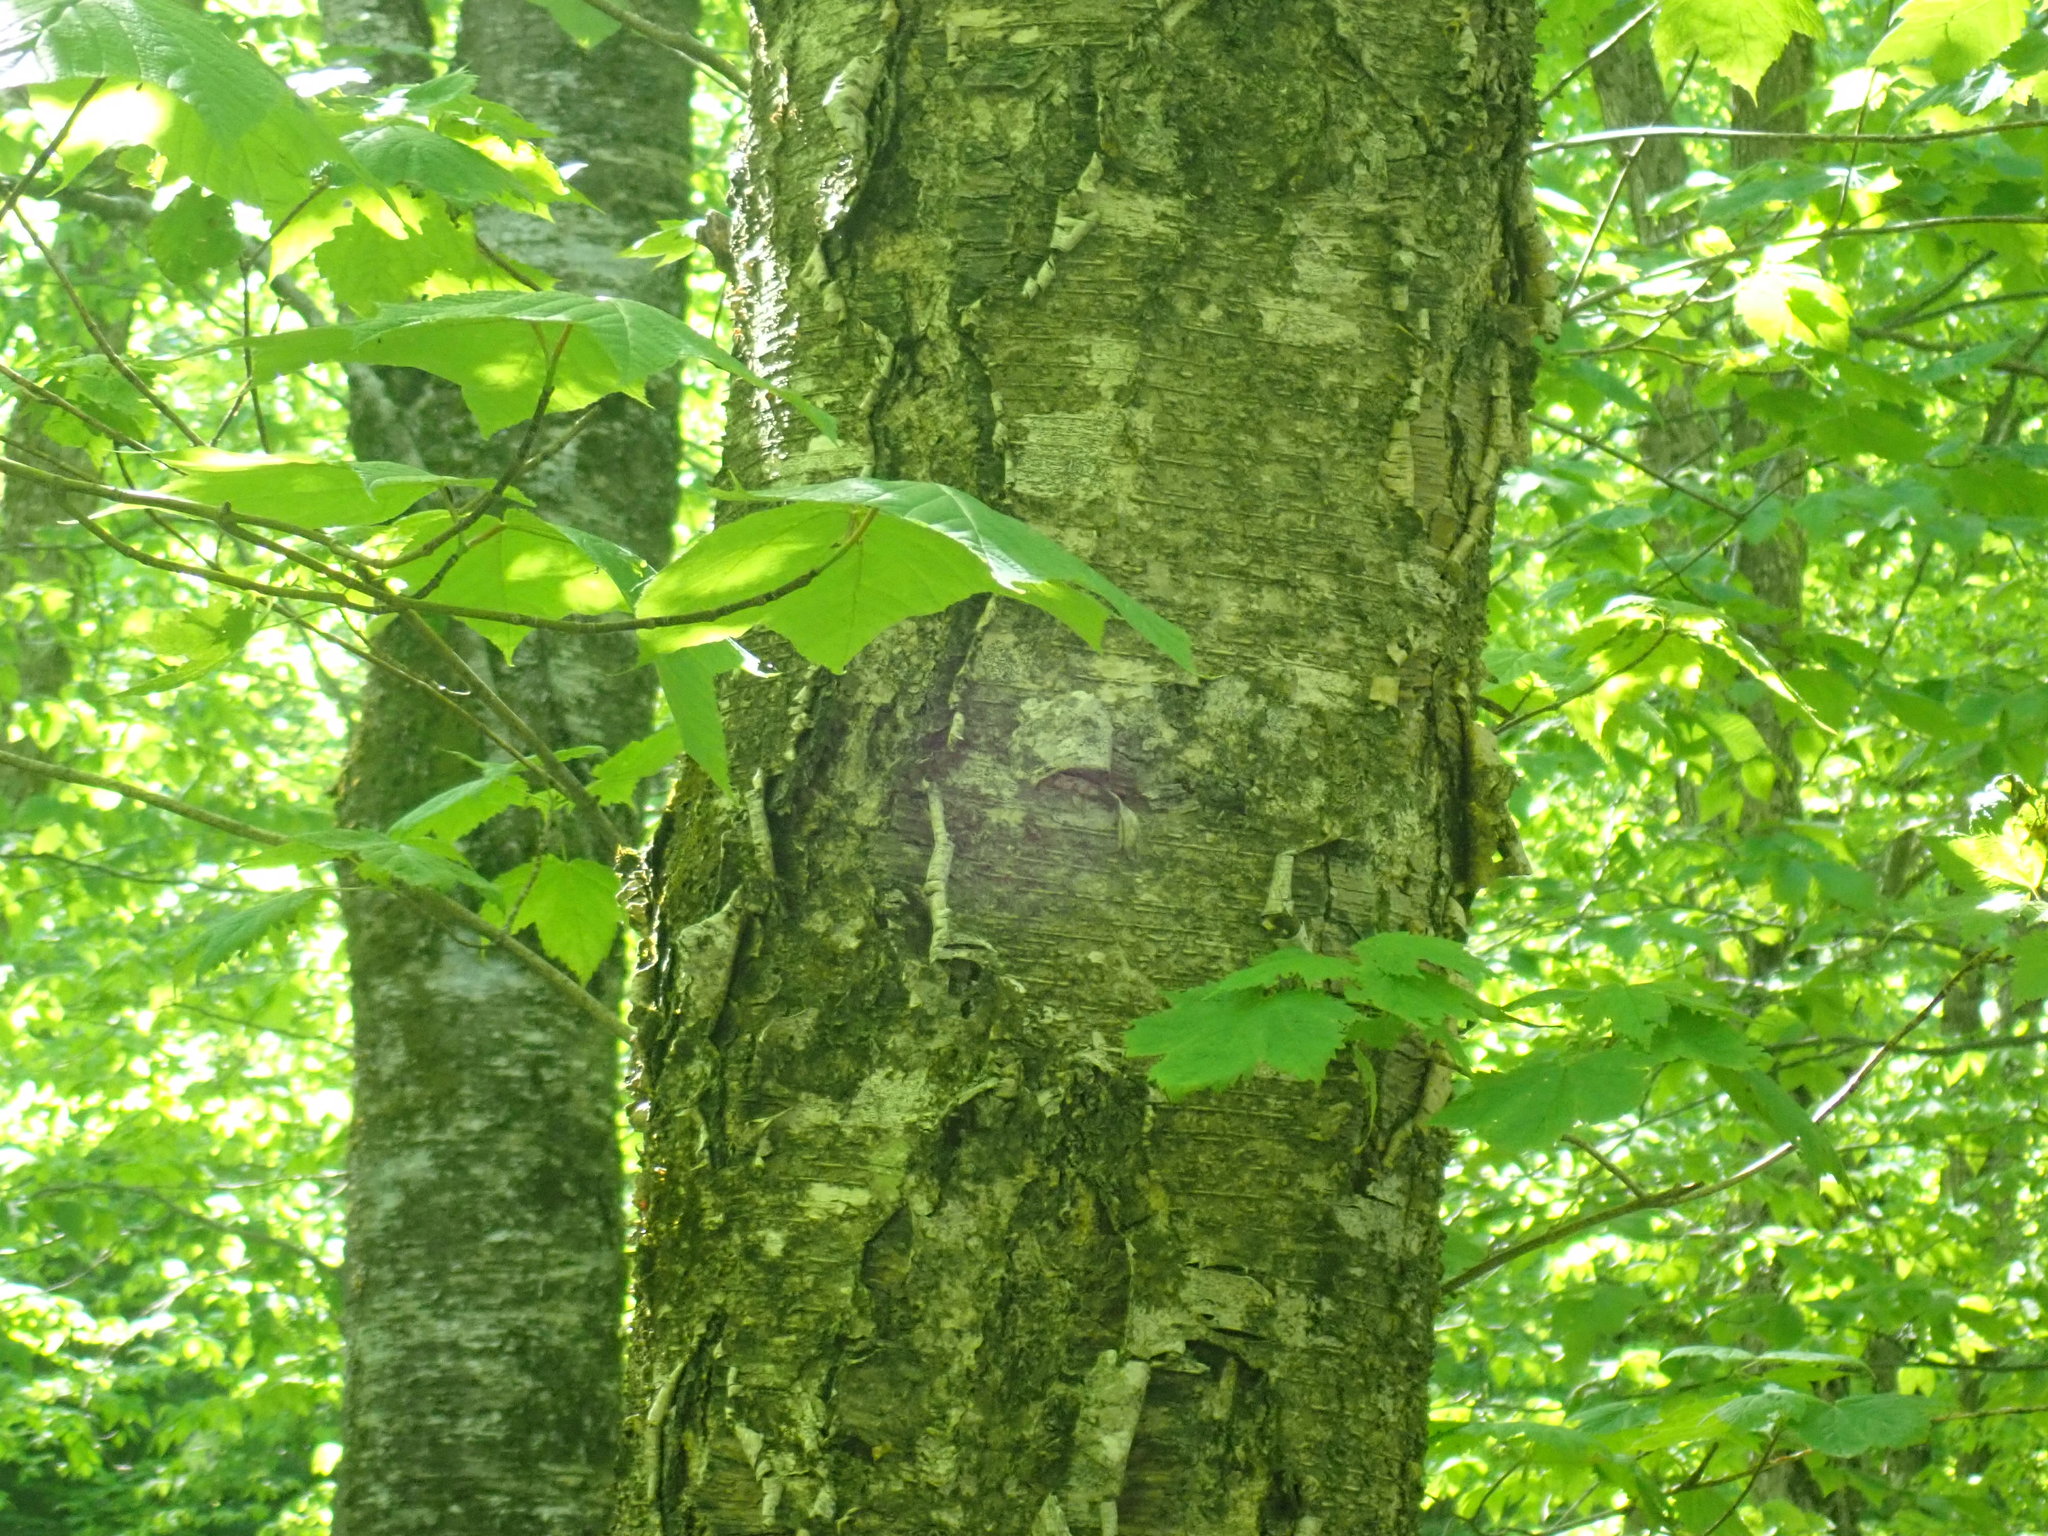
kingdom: Plantae
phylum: Tracheophyta
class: Magnoliopsida
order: Fagales
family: Betulaceae
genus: Betula
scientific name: Betula alleghaniensis
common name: Yellow birch
